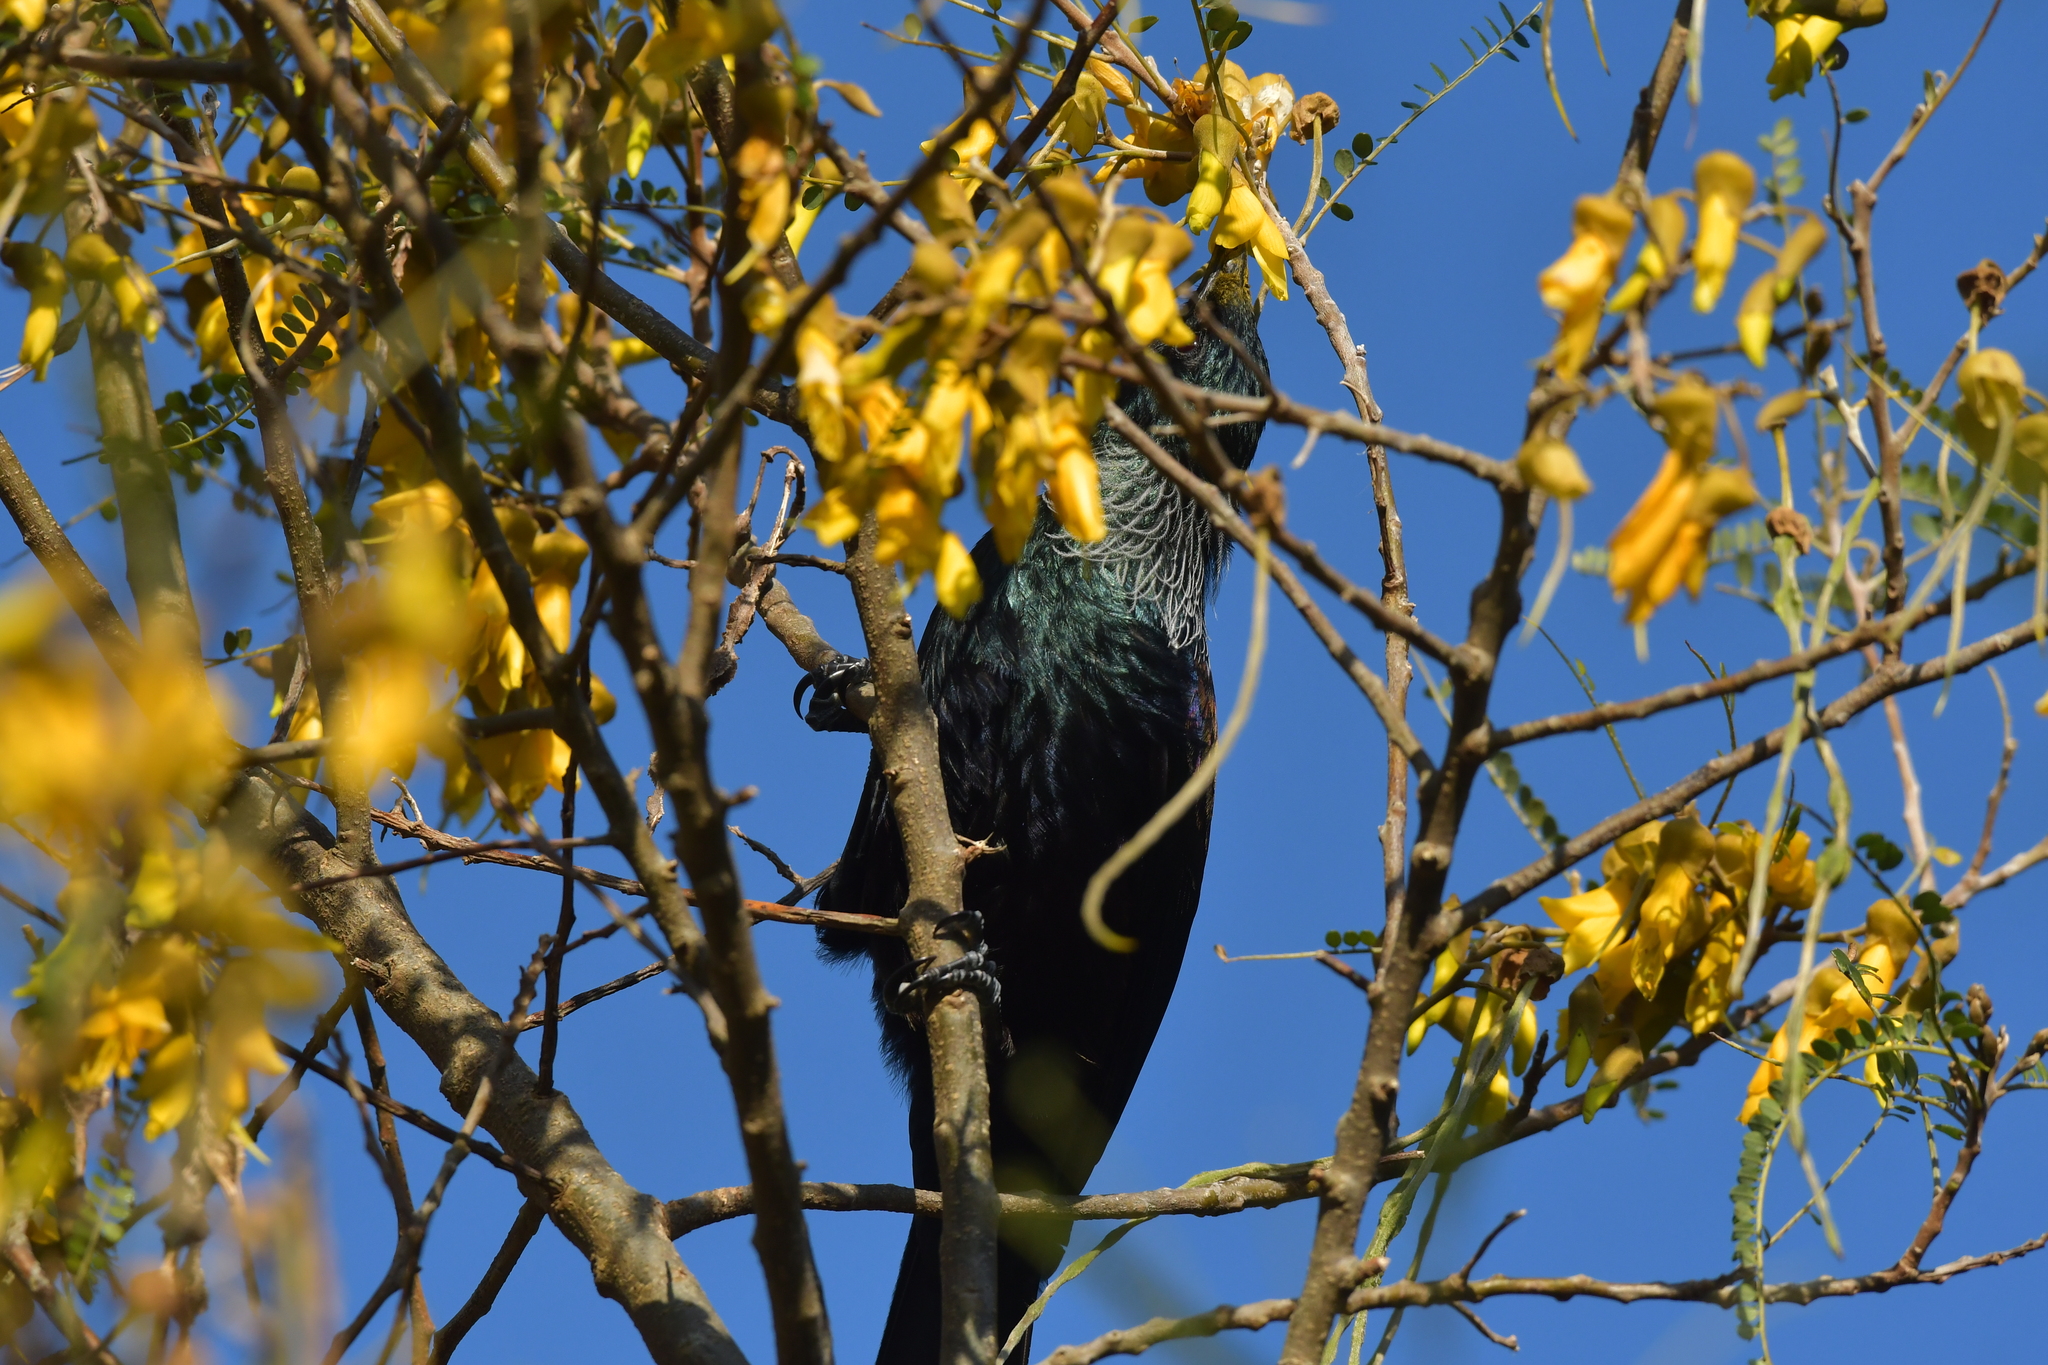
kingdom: Animalia
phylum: Chordata
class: Aves
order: Passeriformes
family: Meliphagidae
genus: Prosthemadera
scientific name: Prosthemadera novaeseelandiae
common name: Tui
